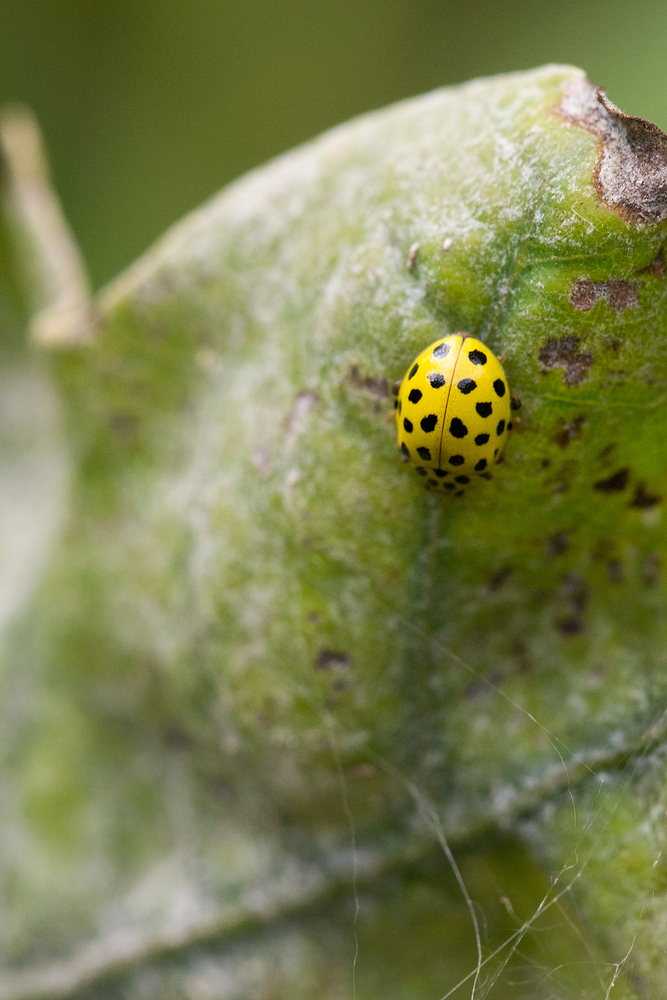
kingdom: Animalia
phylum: Arthropoda
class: Insecta
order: Coleoptera
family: Coccinellidae
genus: Psyllobora
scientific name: Psyllobora vigintiduopunctata
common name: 22-spot ladybird
